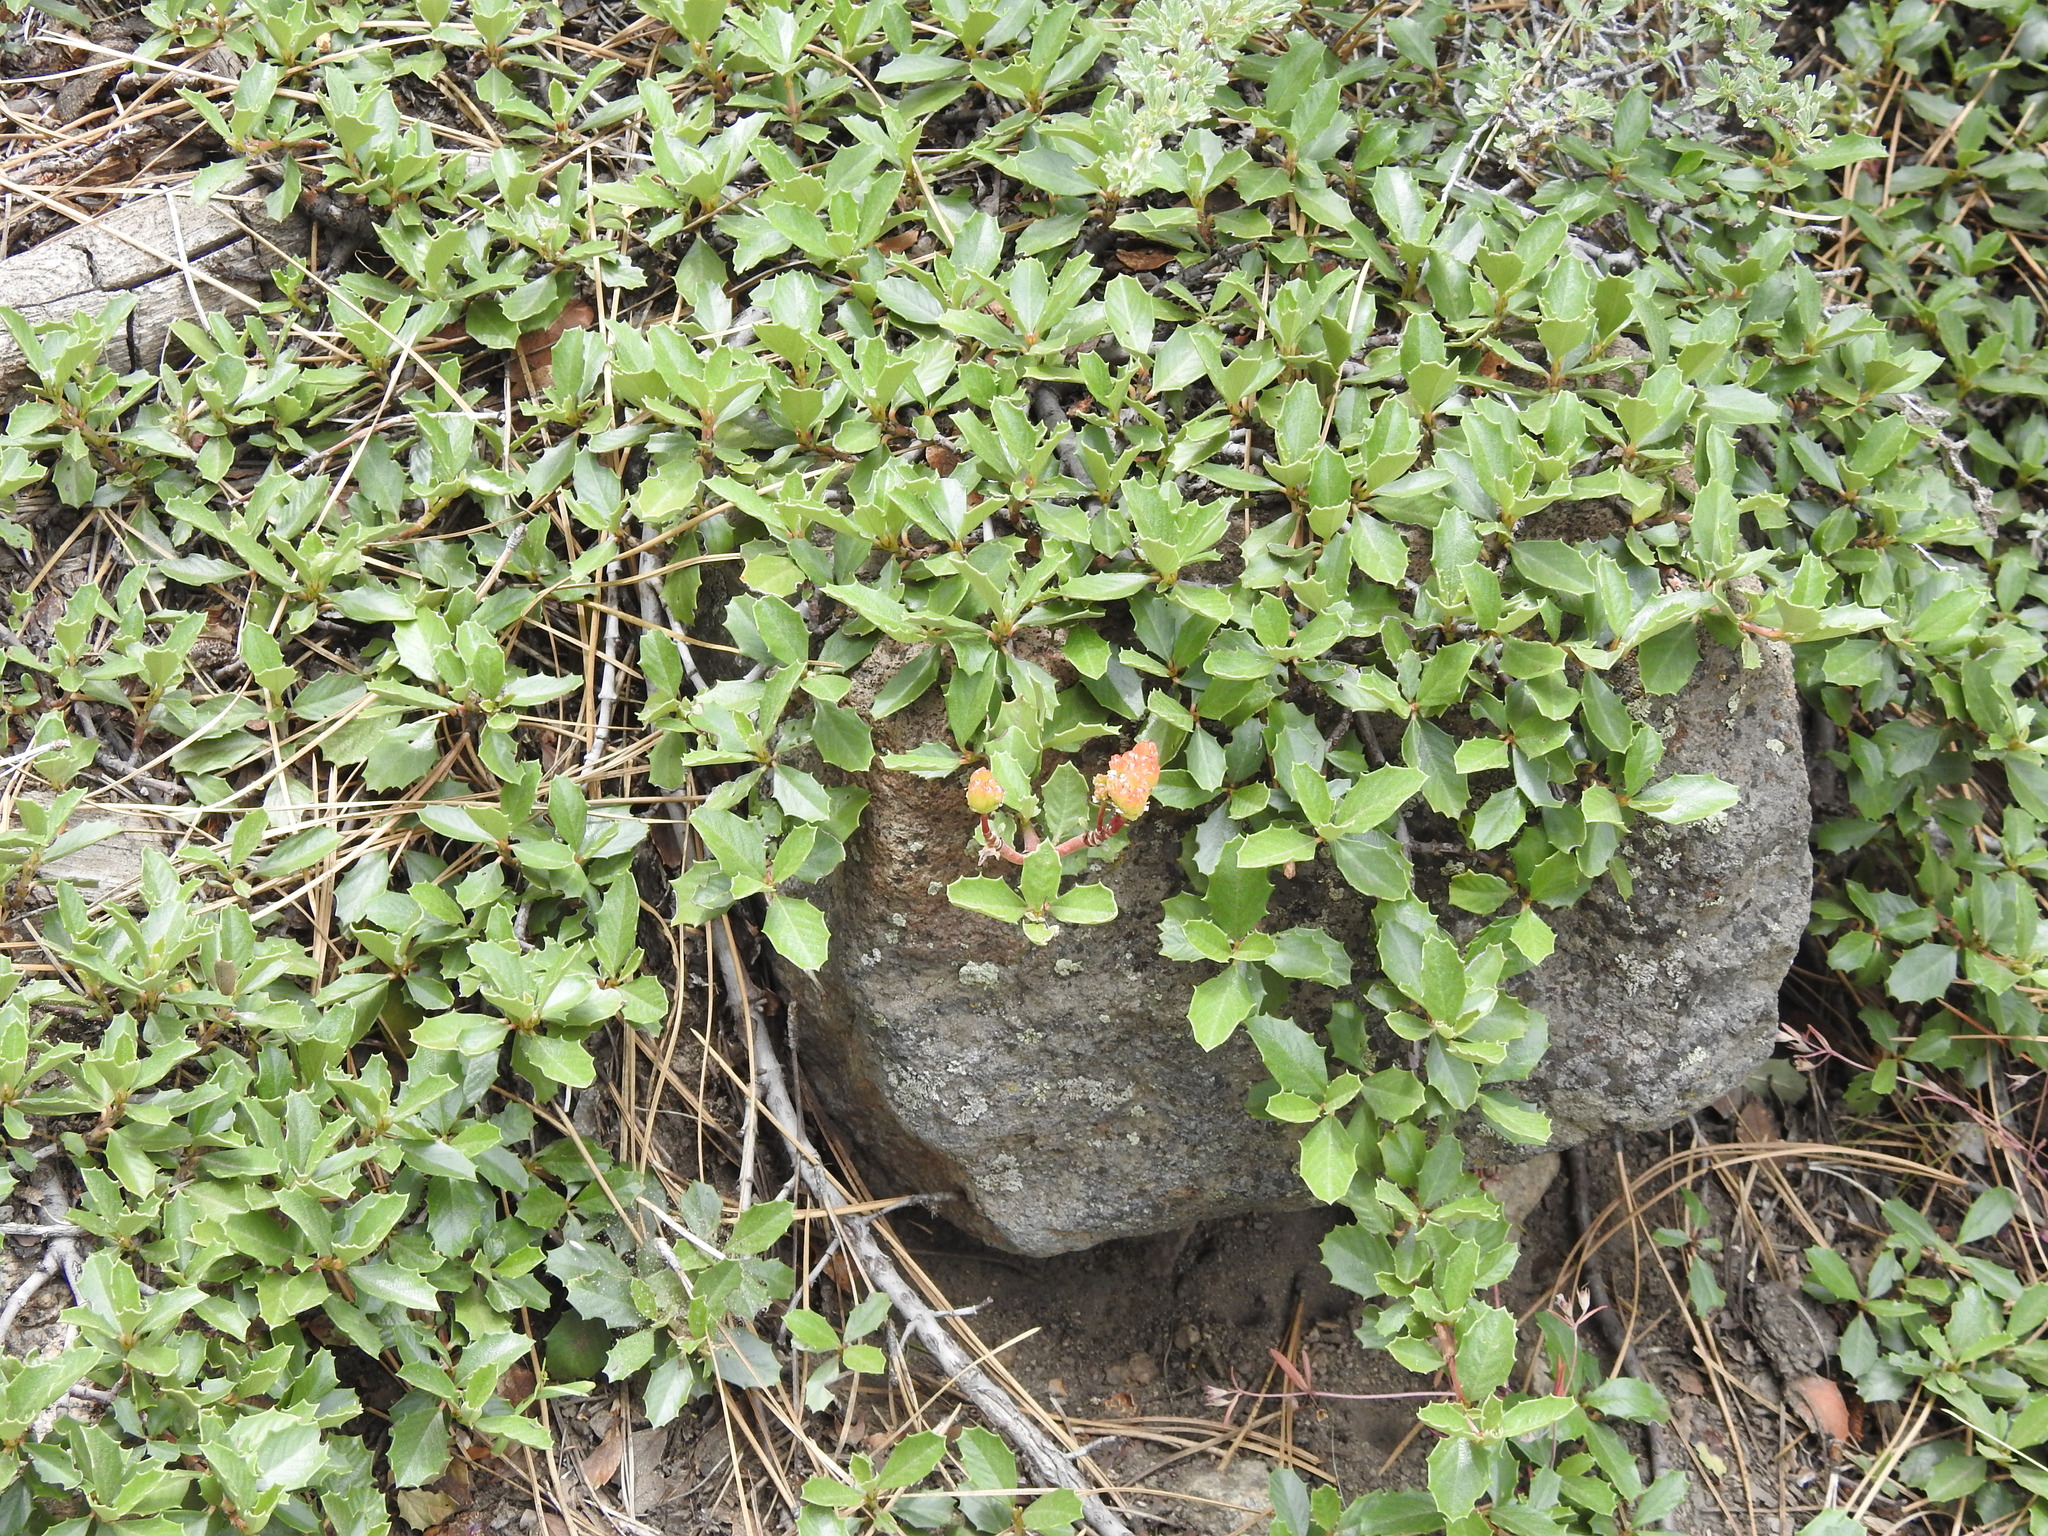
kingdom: Plantae
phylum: Tracheophyta
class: Magnoliopsida
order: Rosales
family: Rhamnaceae
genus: Ceanothus
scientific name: Ceanothus prostratus
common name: Mahala-mat
